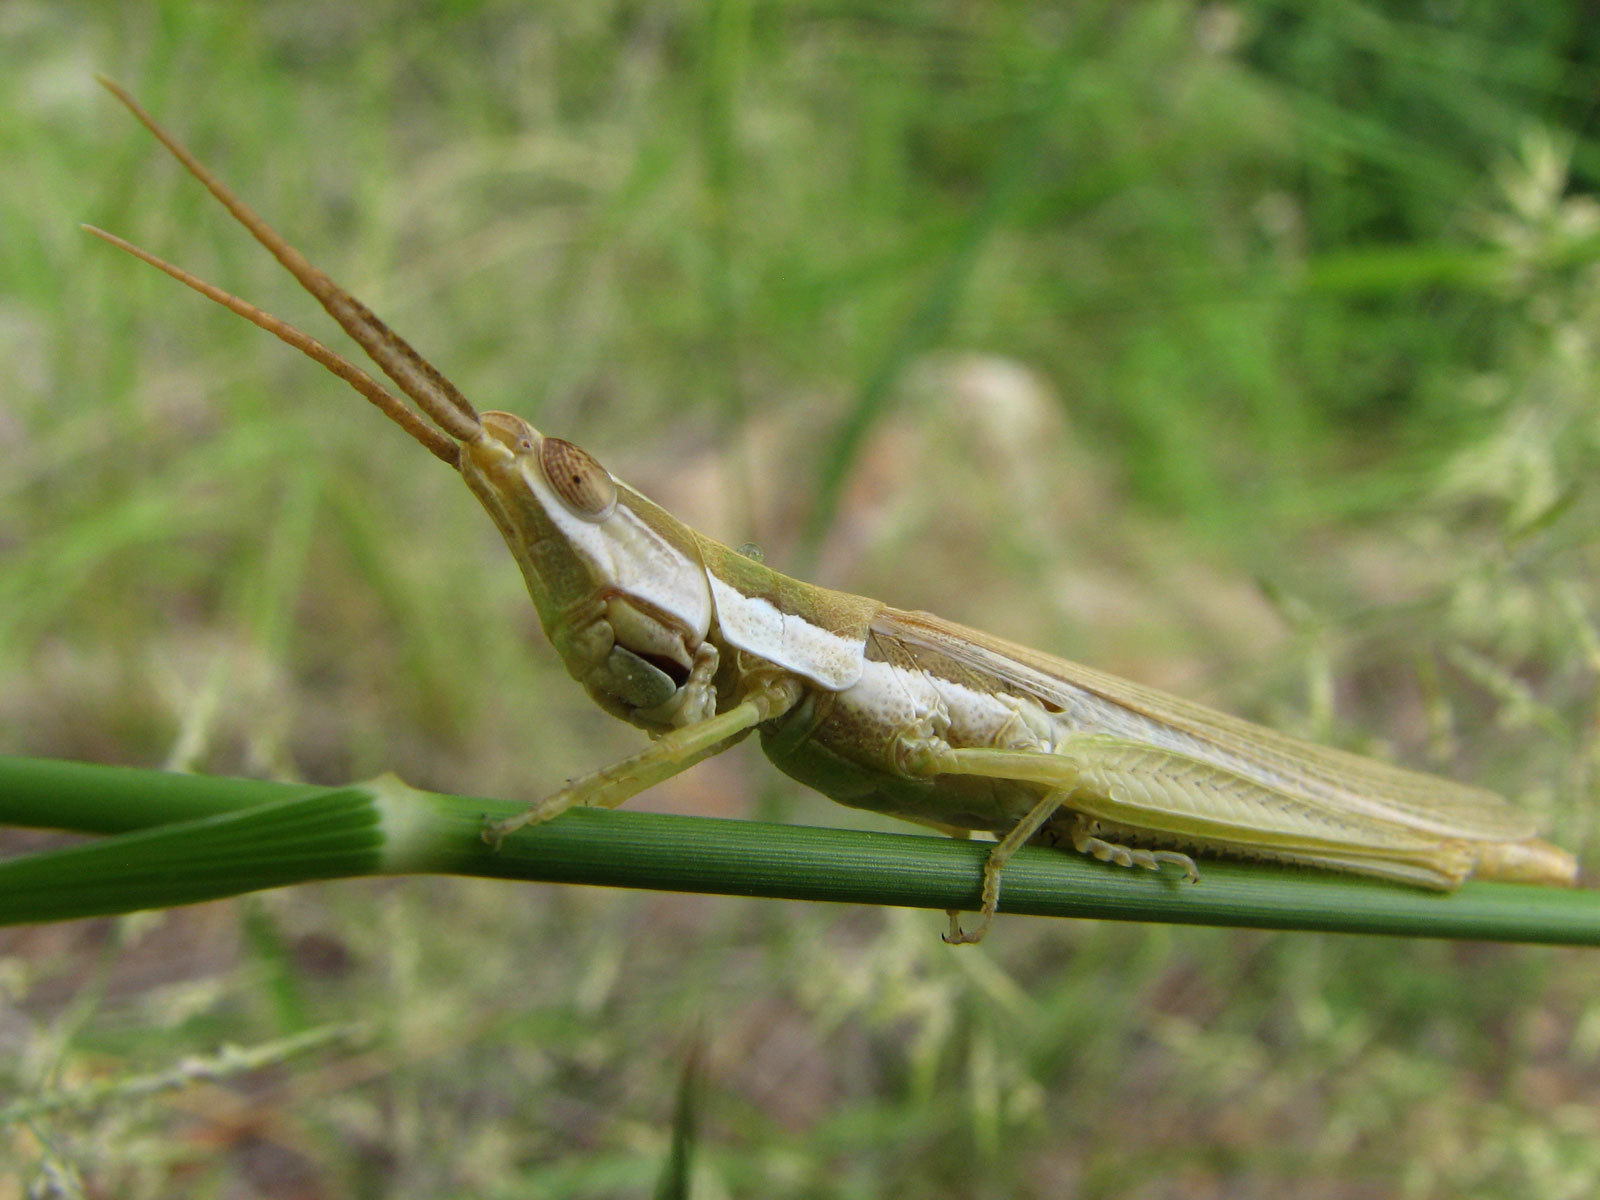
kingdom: Animalia
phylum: Arthropoda
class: Insecta
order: Orthoptera
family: Acrididae
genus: Paropomala
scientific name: Paropomala pallida
